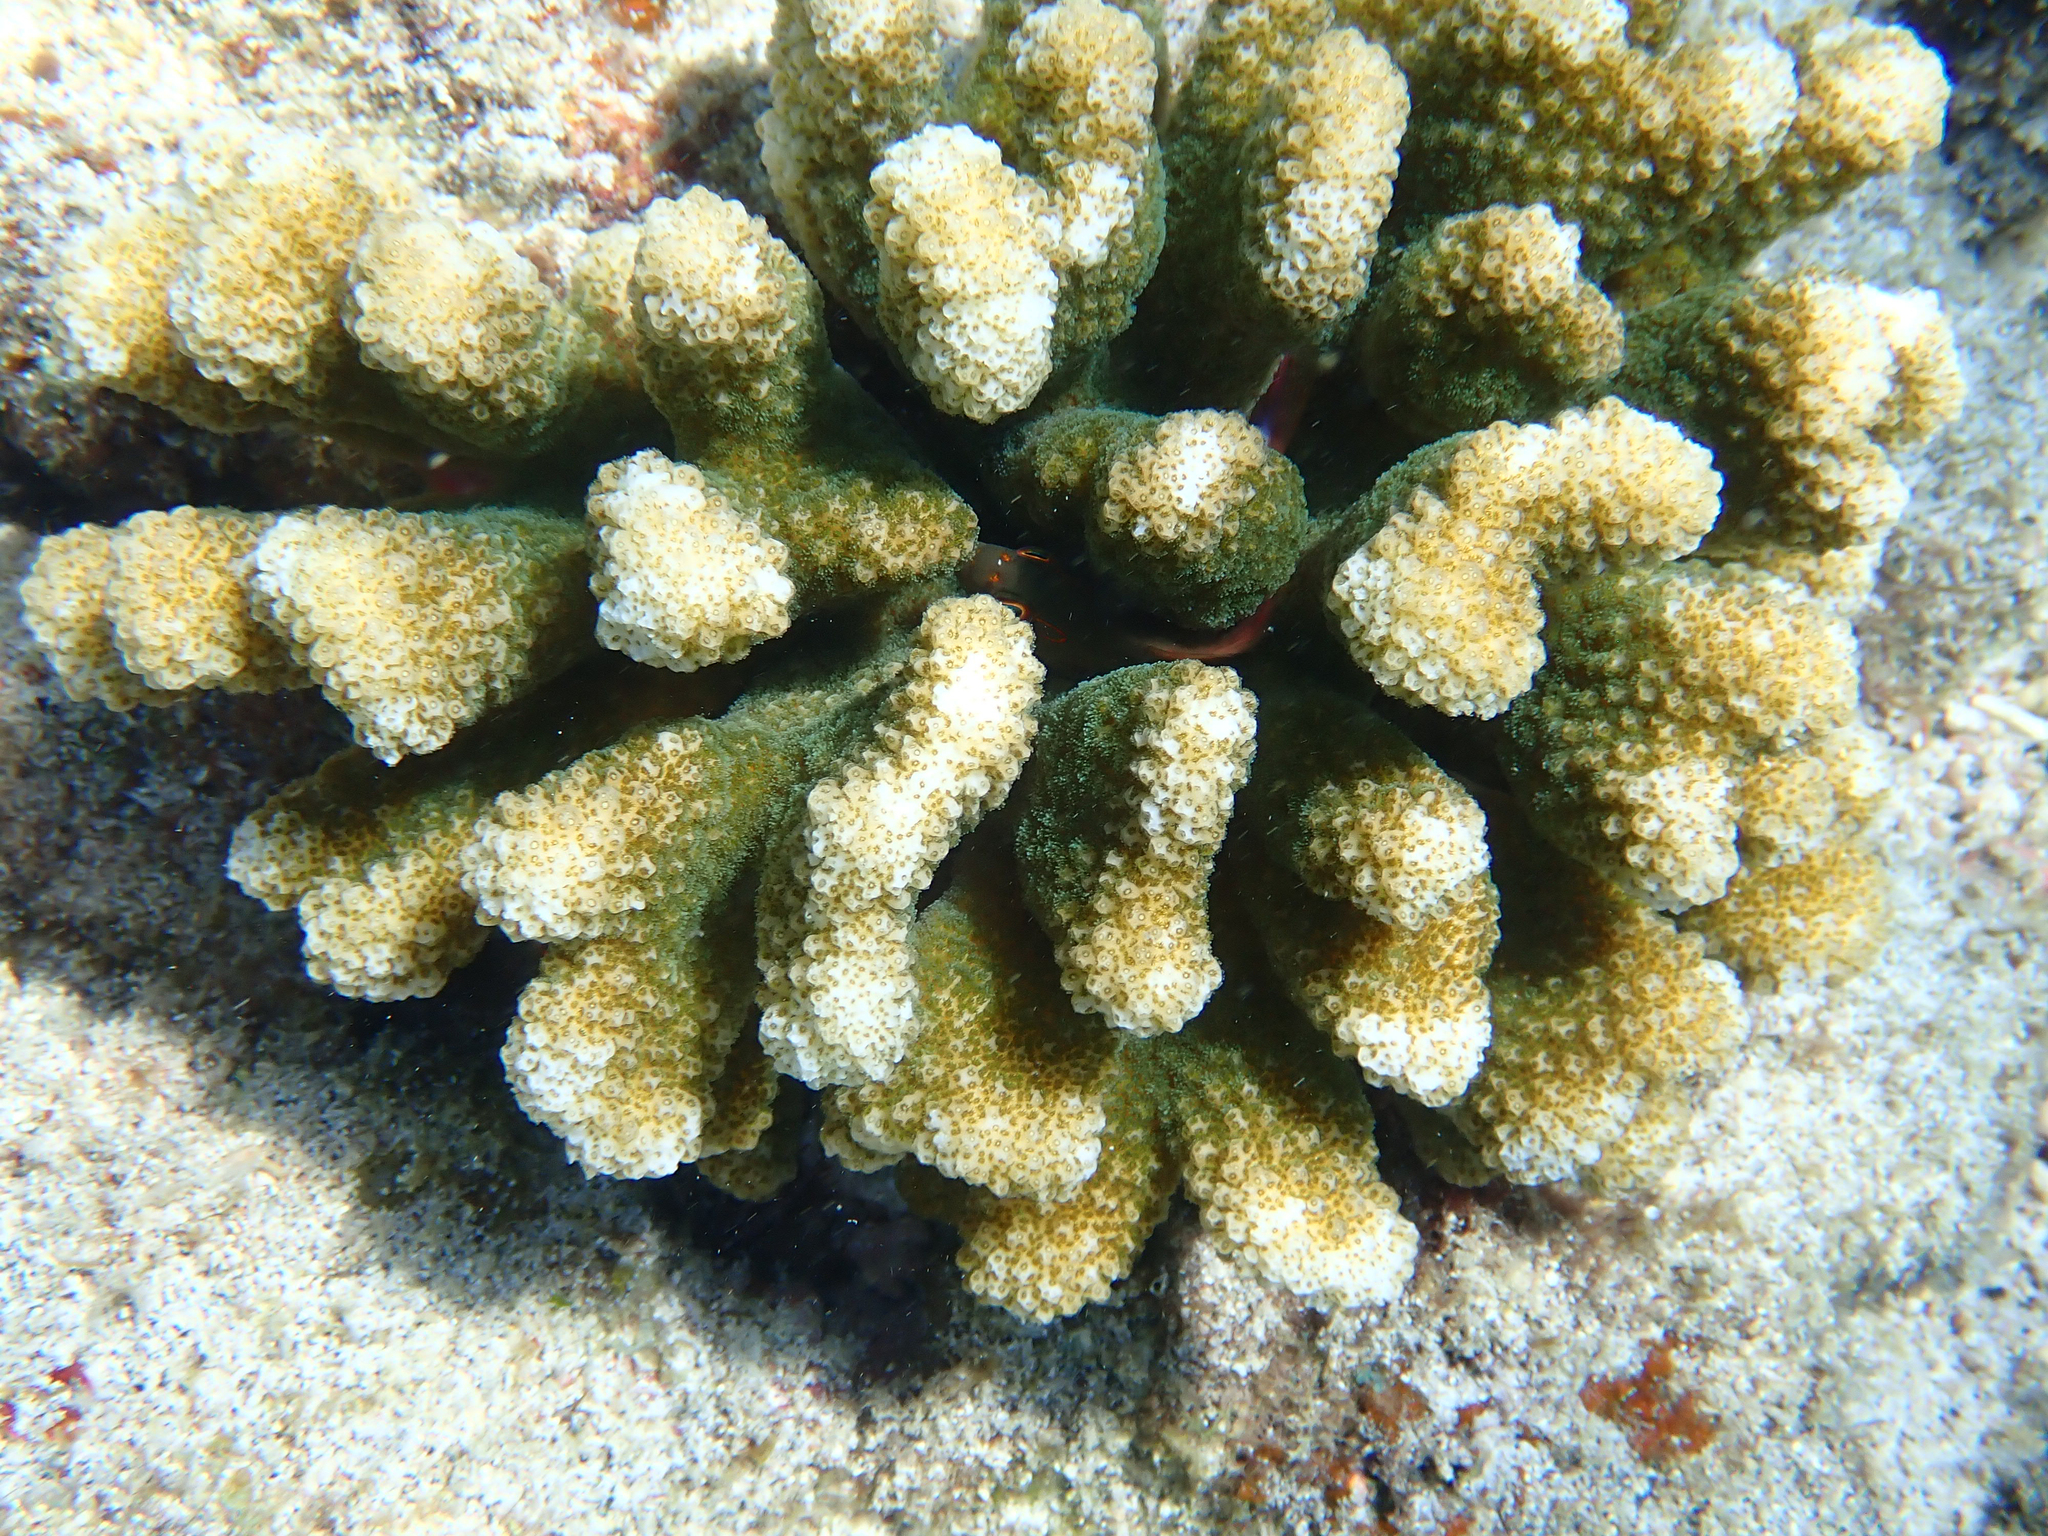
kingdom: Animalia
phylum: Cnidaria
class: Anthozoa
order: Scleractinia
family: Pocilloporidae
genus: Pocillopora
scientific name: Pocillopora meandrina
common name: Cauliflower coral
